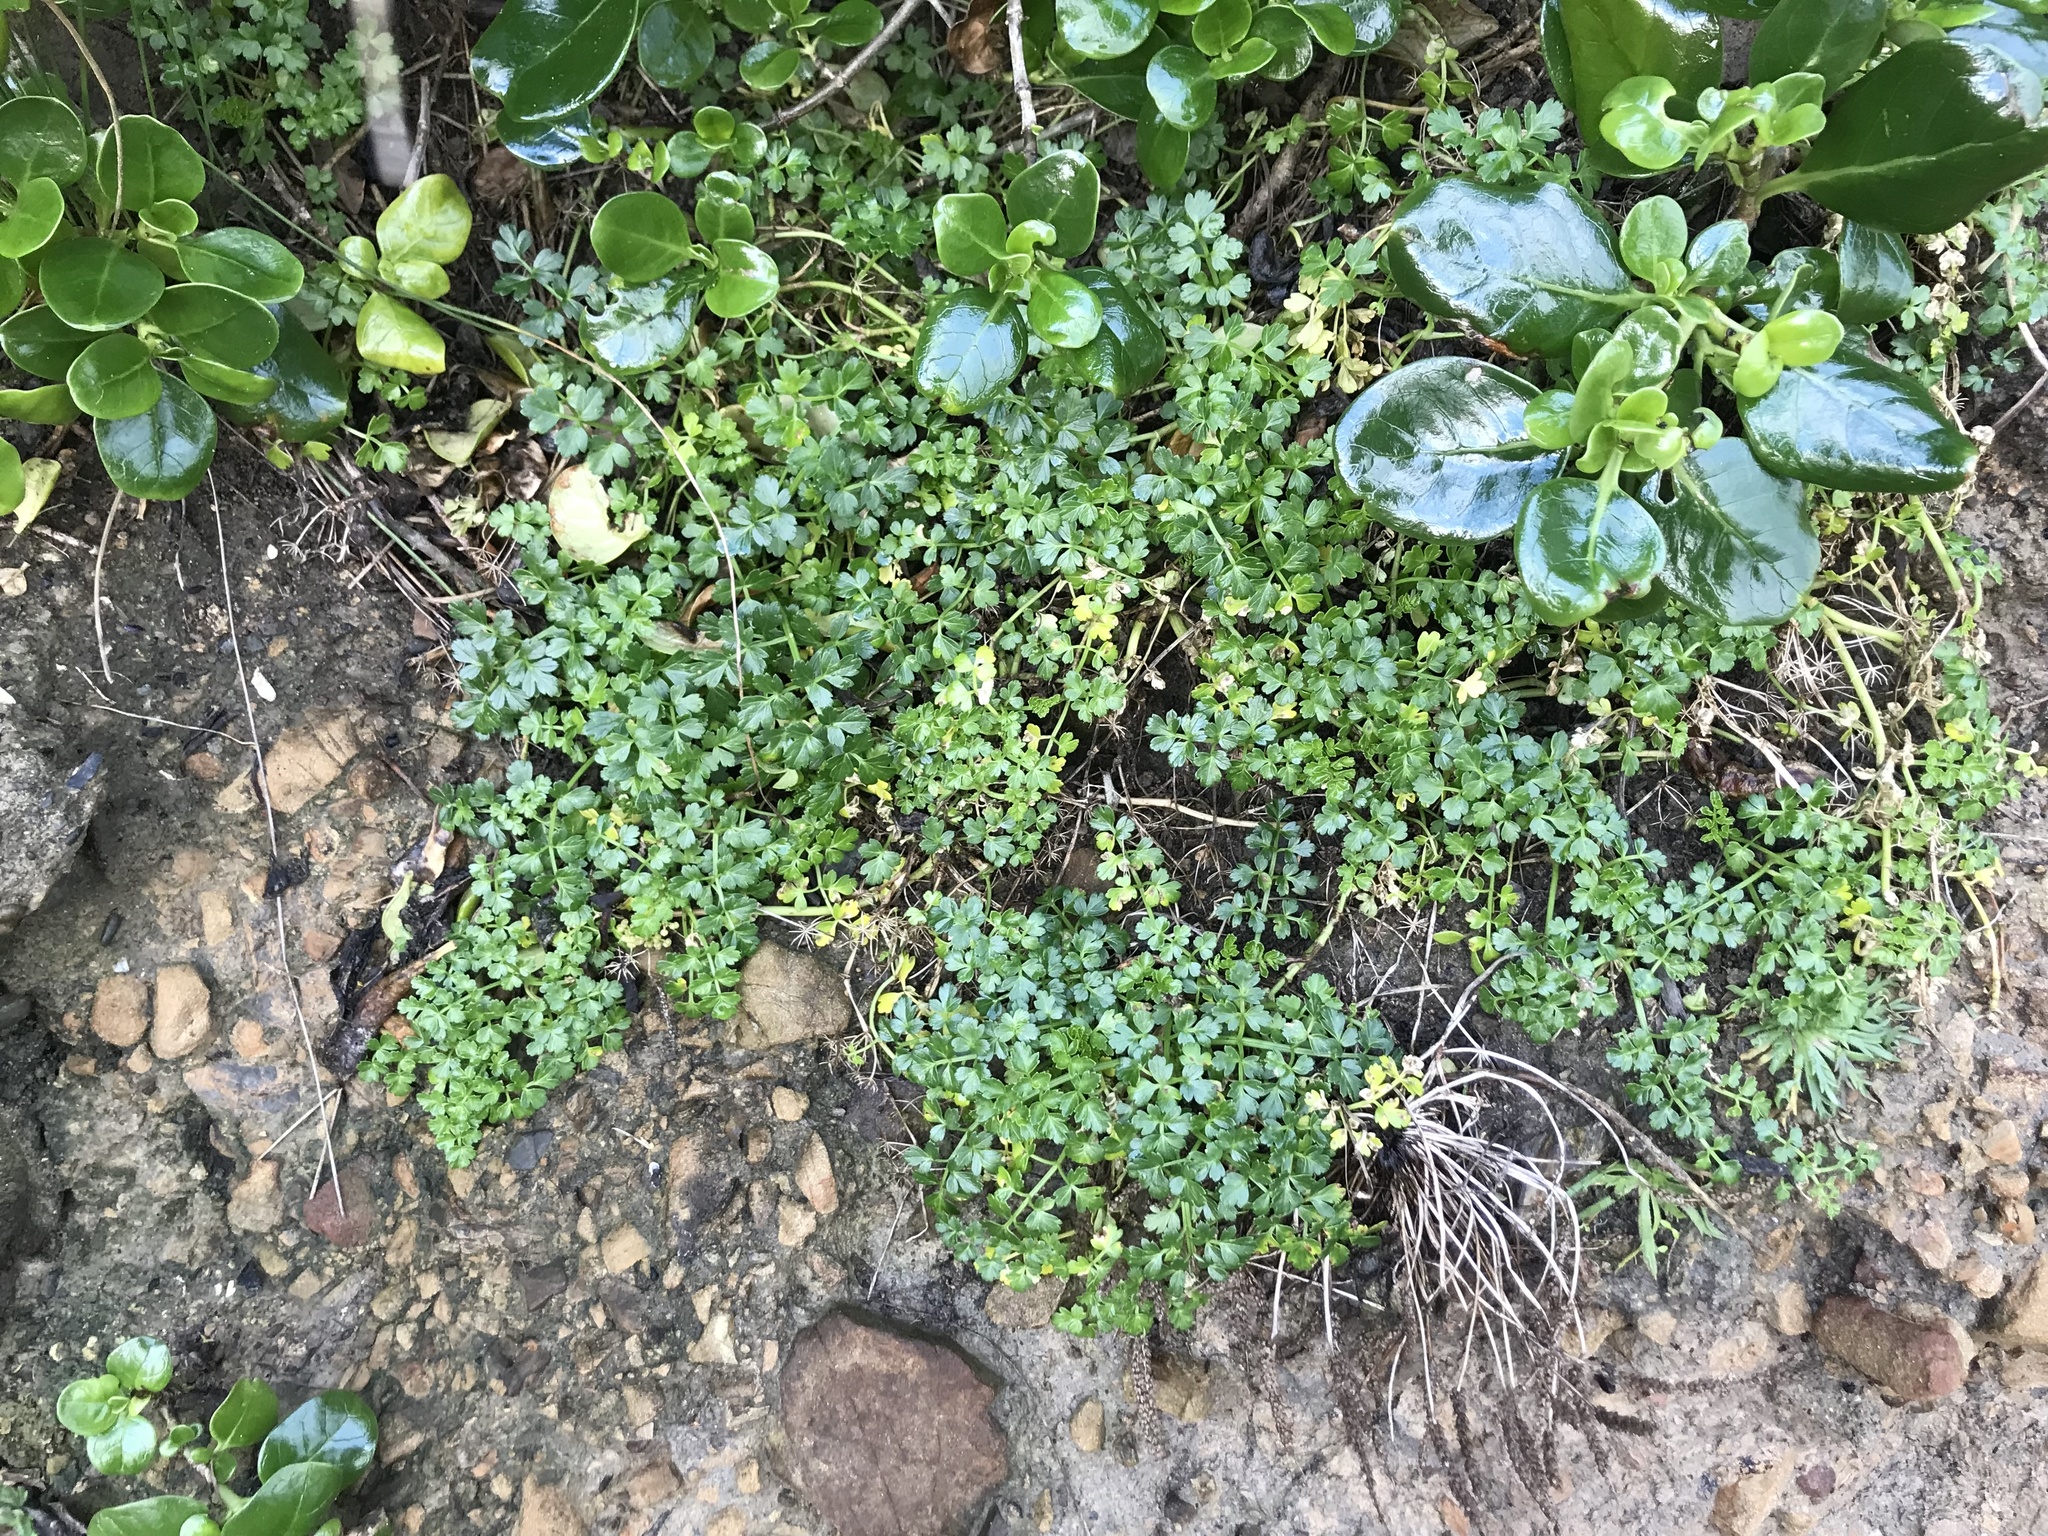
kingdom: Plantae
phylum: Tracheophyta
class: Magnoliopsida
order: Apiales
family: Apiaceae
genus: Apium
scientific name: Apium prostratum
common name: Prostrate marshwort
